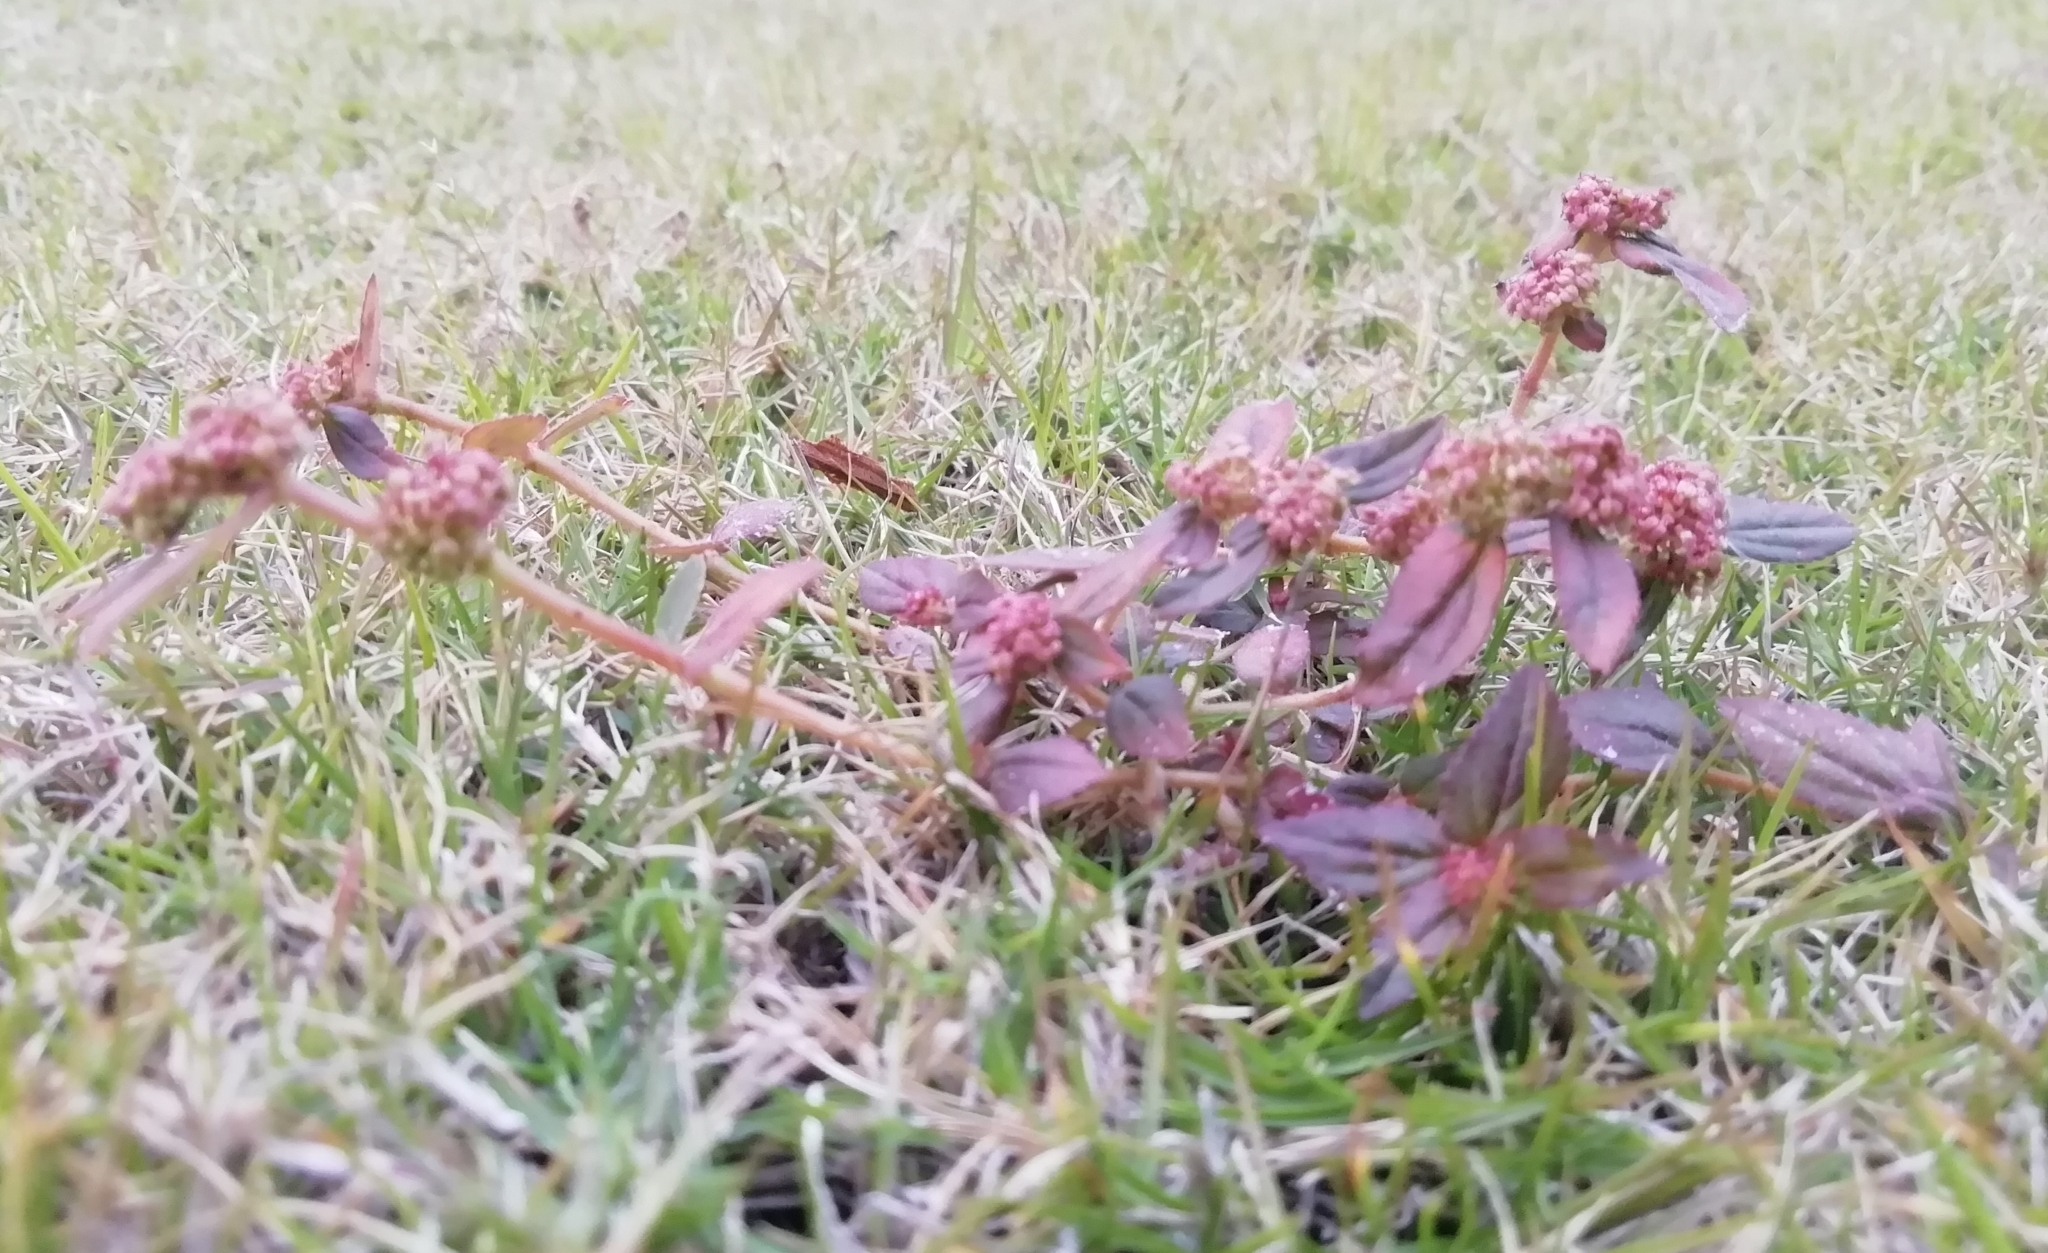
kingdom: Plantae
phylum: Tracheophyta
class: Magnoliopsida
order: Malpighiales
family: Euphorbiaceae
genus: Euphorbia
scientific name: Euphorbia hirta
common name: Pillpod sandmat
